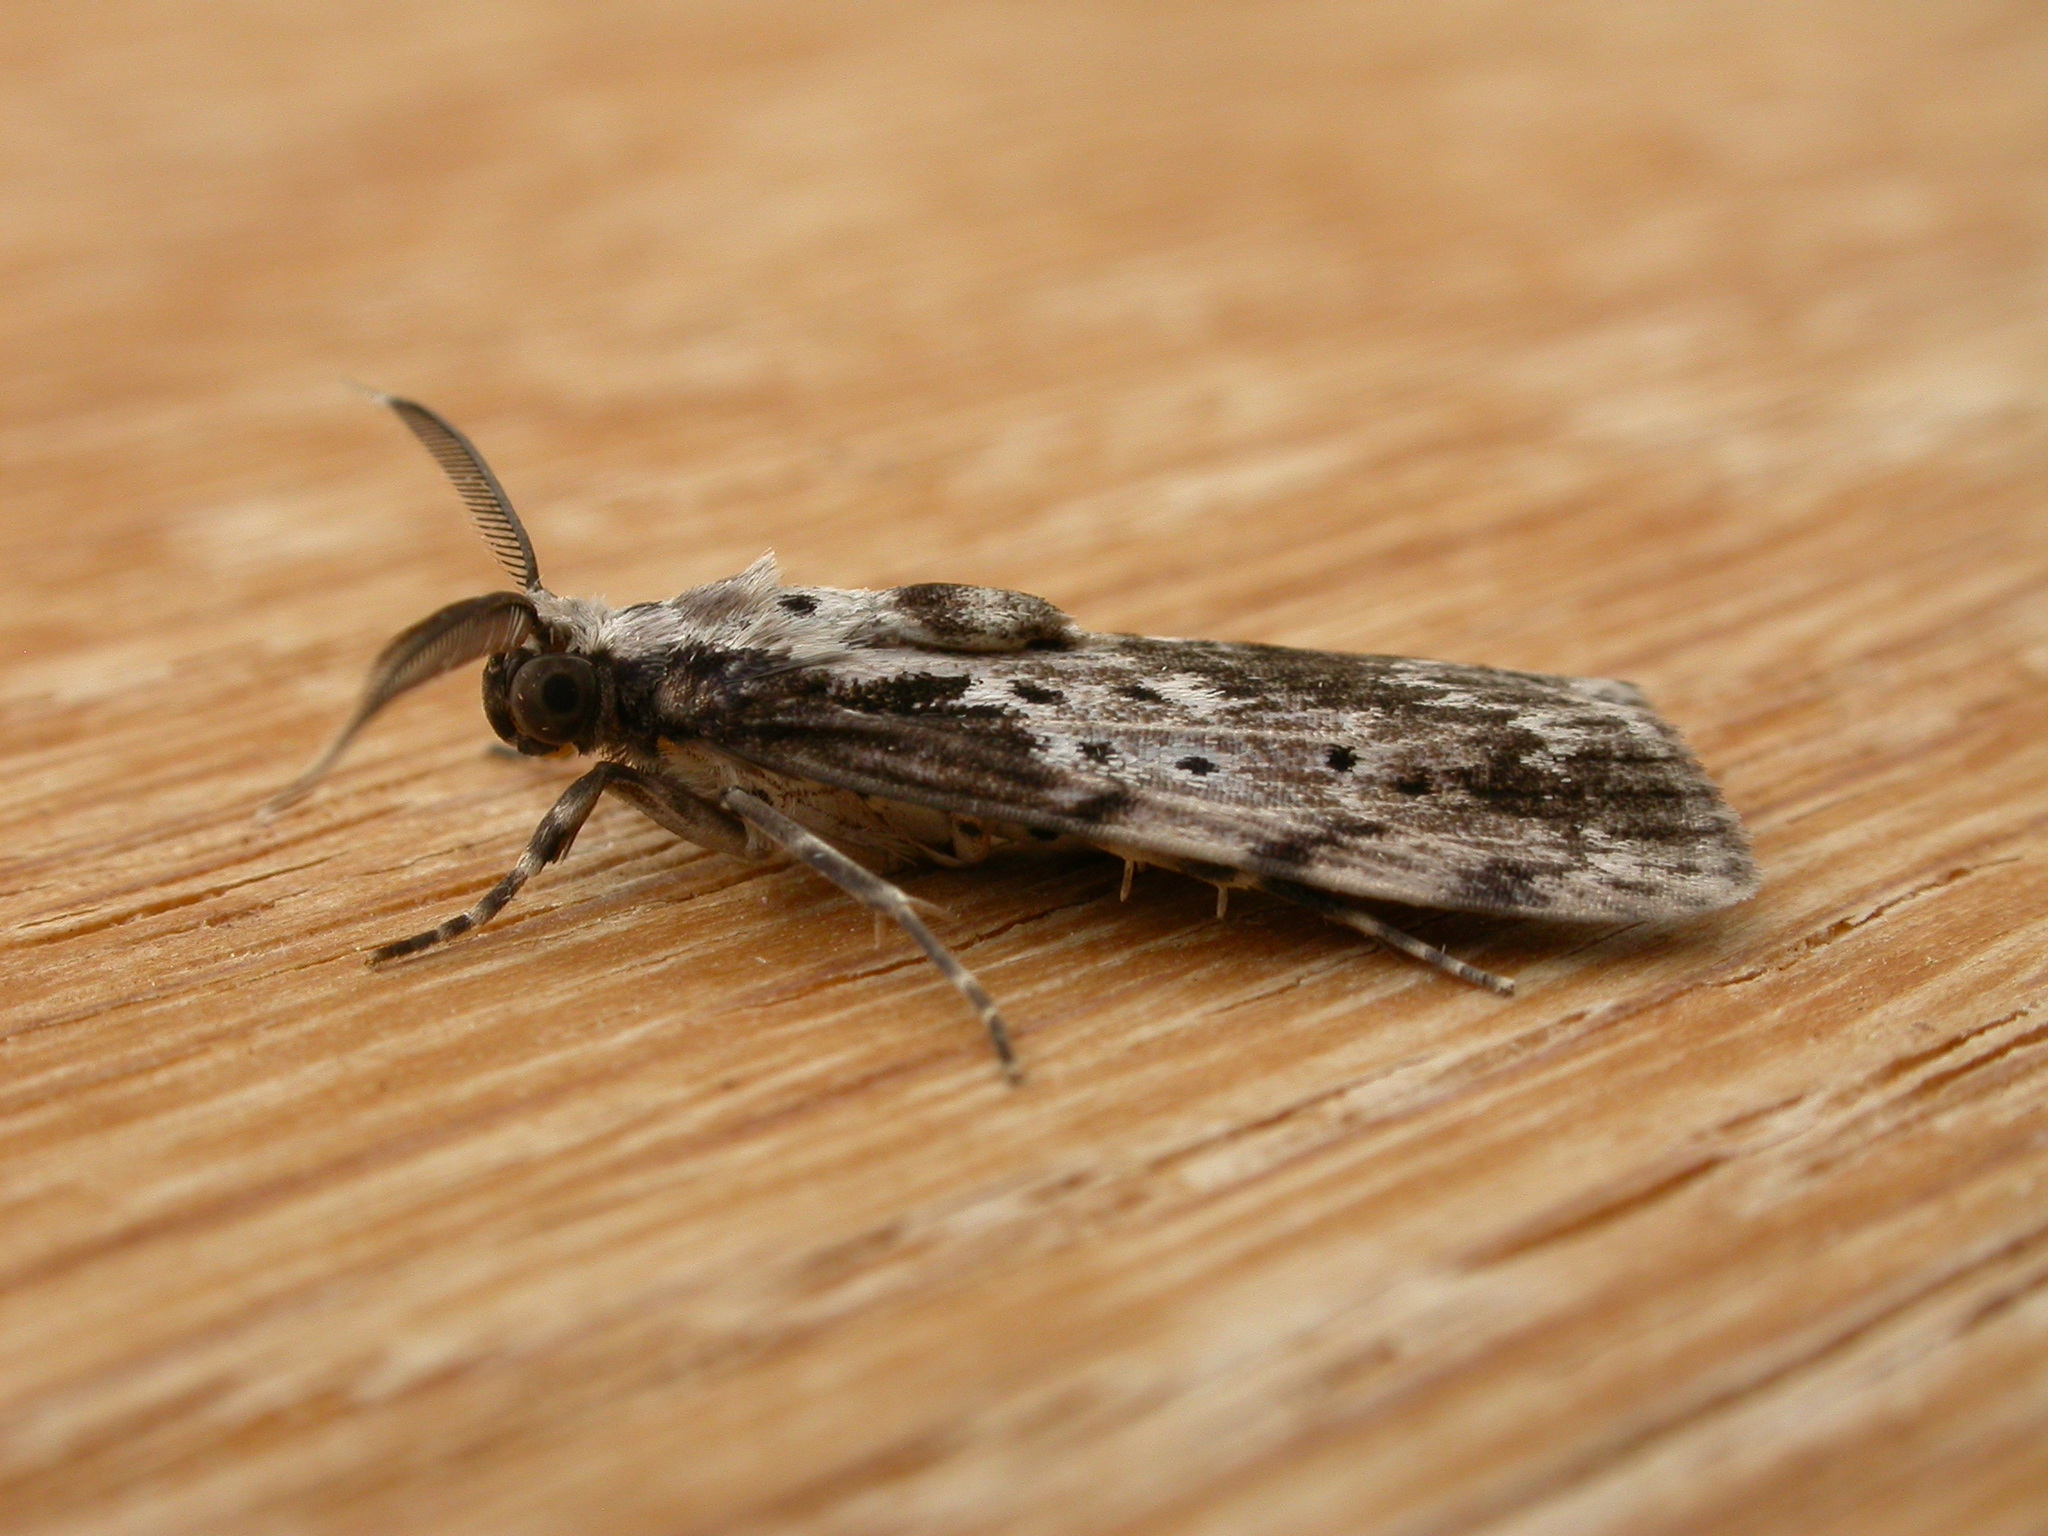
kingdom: Animalia
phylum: Arthropoda
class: Insecta
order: Lepidoptera
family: Erebidae
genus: Digama
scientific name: Digama Sommeria marmorea
